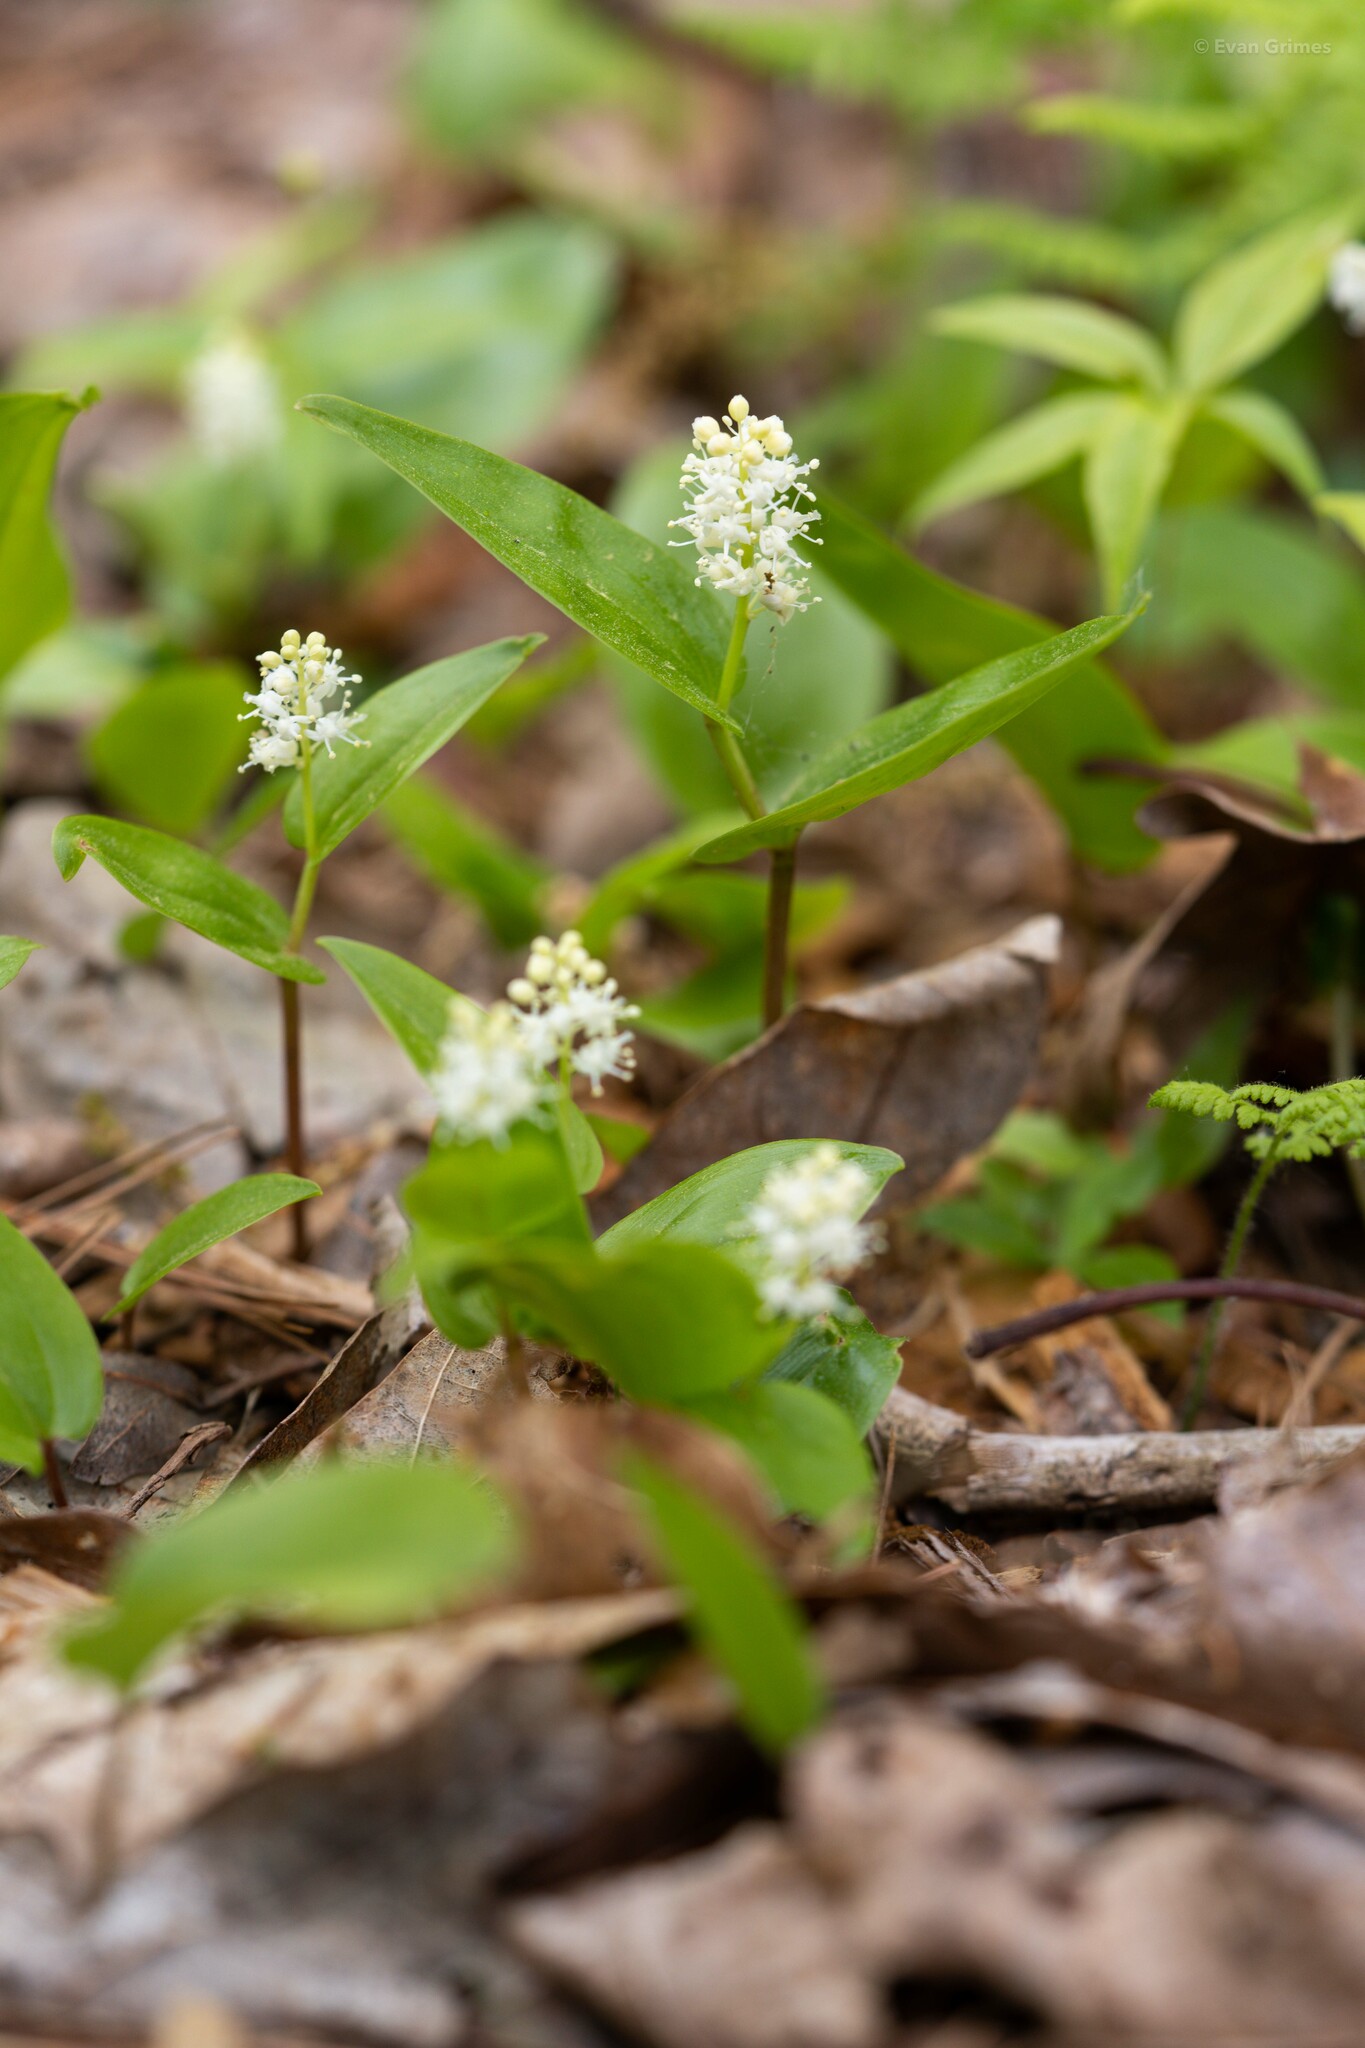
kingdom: Plantae
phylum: Tracheophyta
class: Liliopsida
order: Asparagales
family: Asparagaceae
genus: Maianthemum
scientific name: Maianthemum canadense
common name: False lily-of-the-valley
